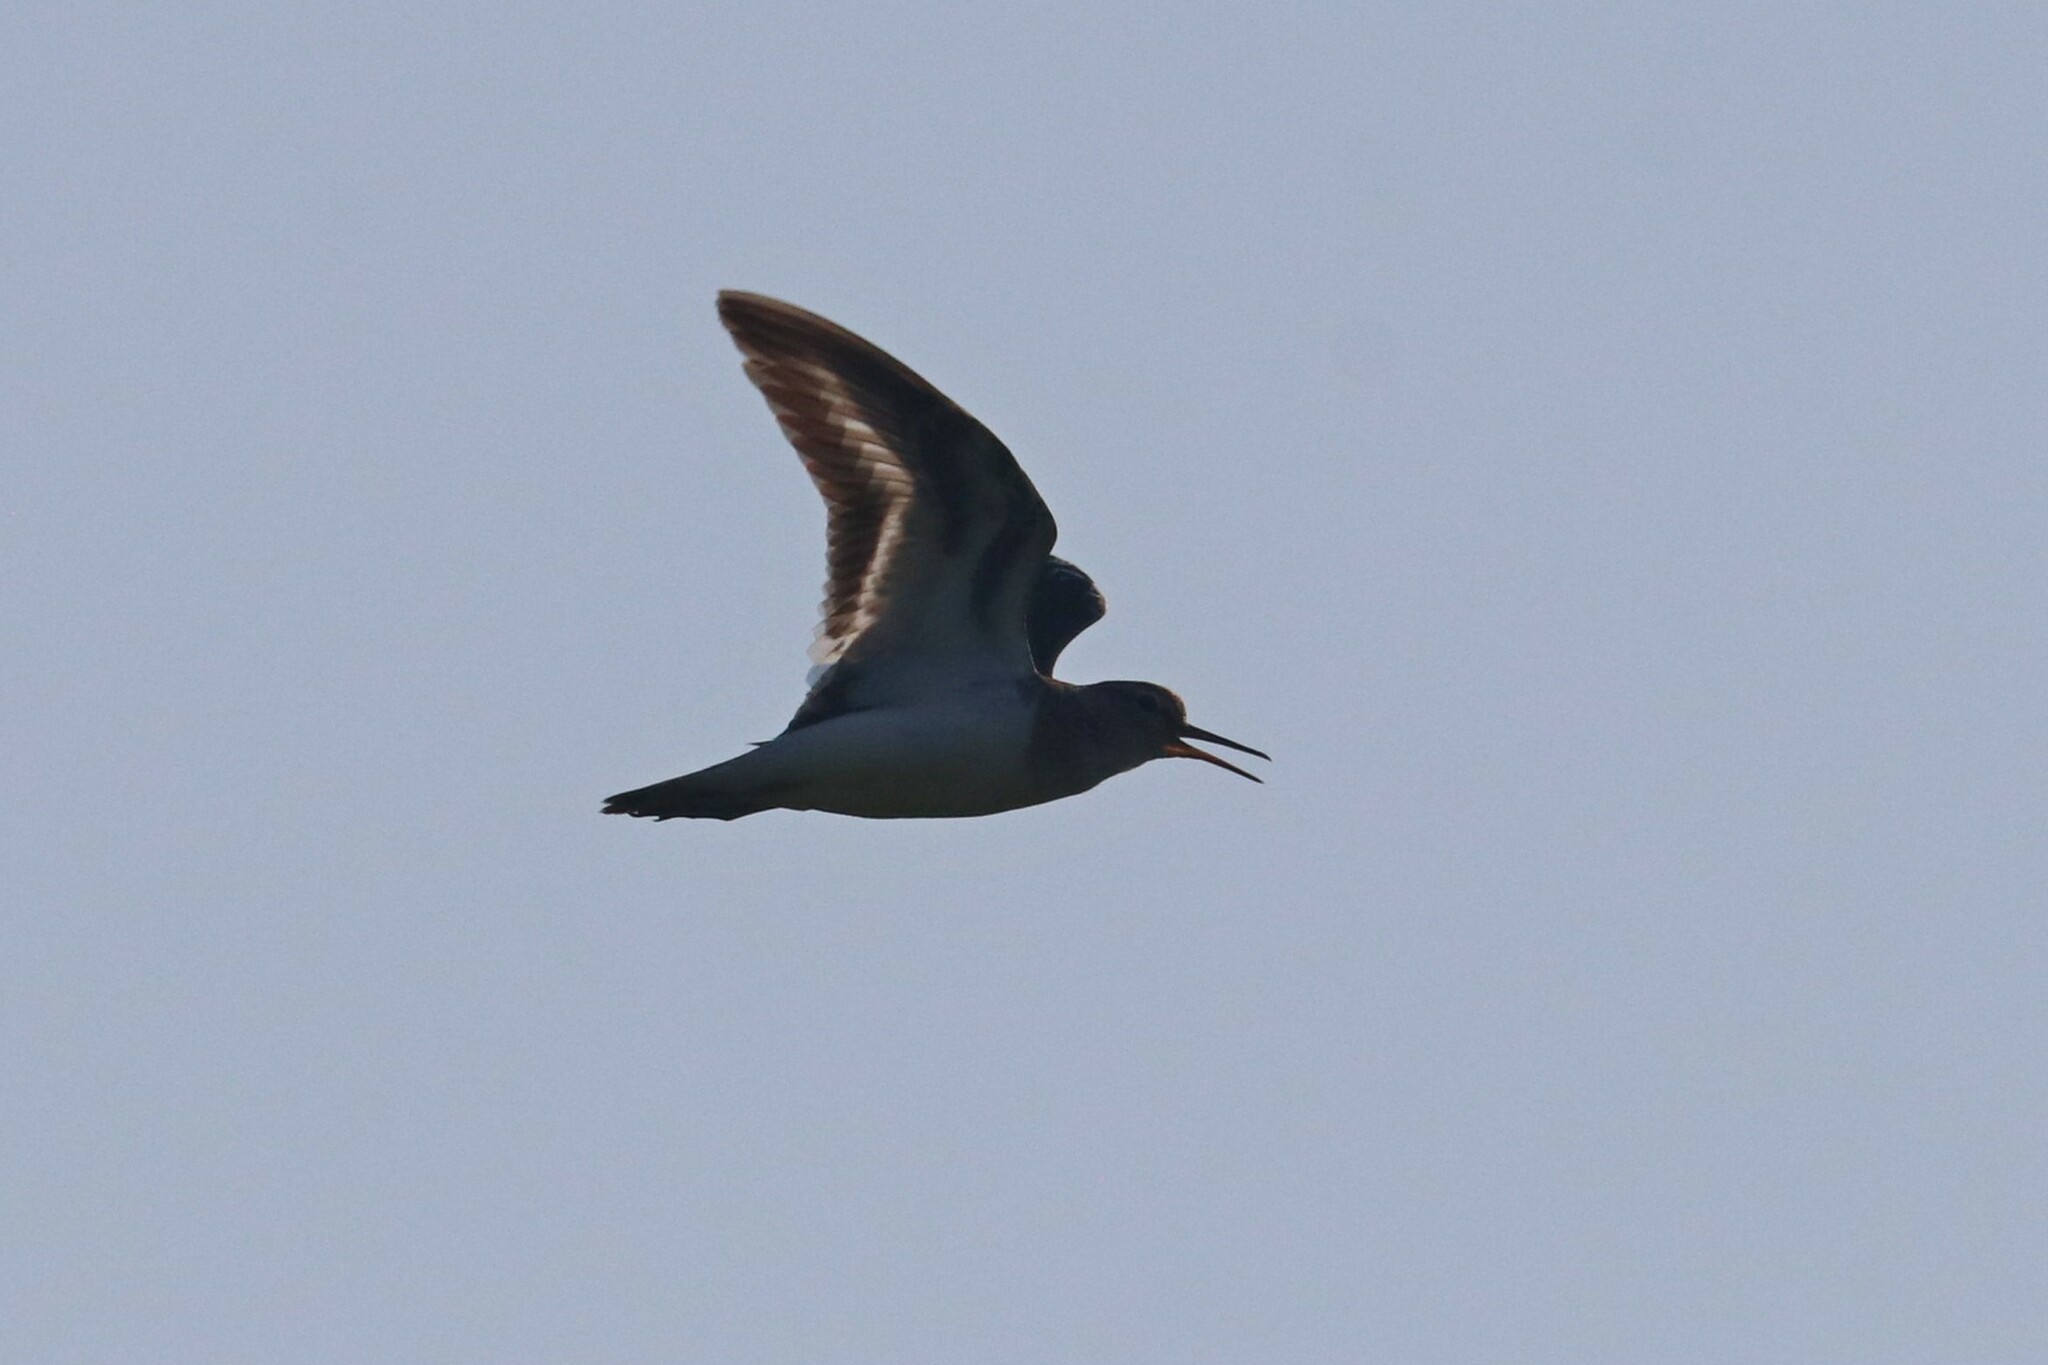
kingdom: Animalia
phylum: Chordata
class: Aves
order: Charadriiformes
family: Scolopacidae
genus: Actitis
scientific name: Actitis hypoleucos
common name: Common sandpiper
